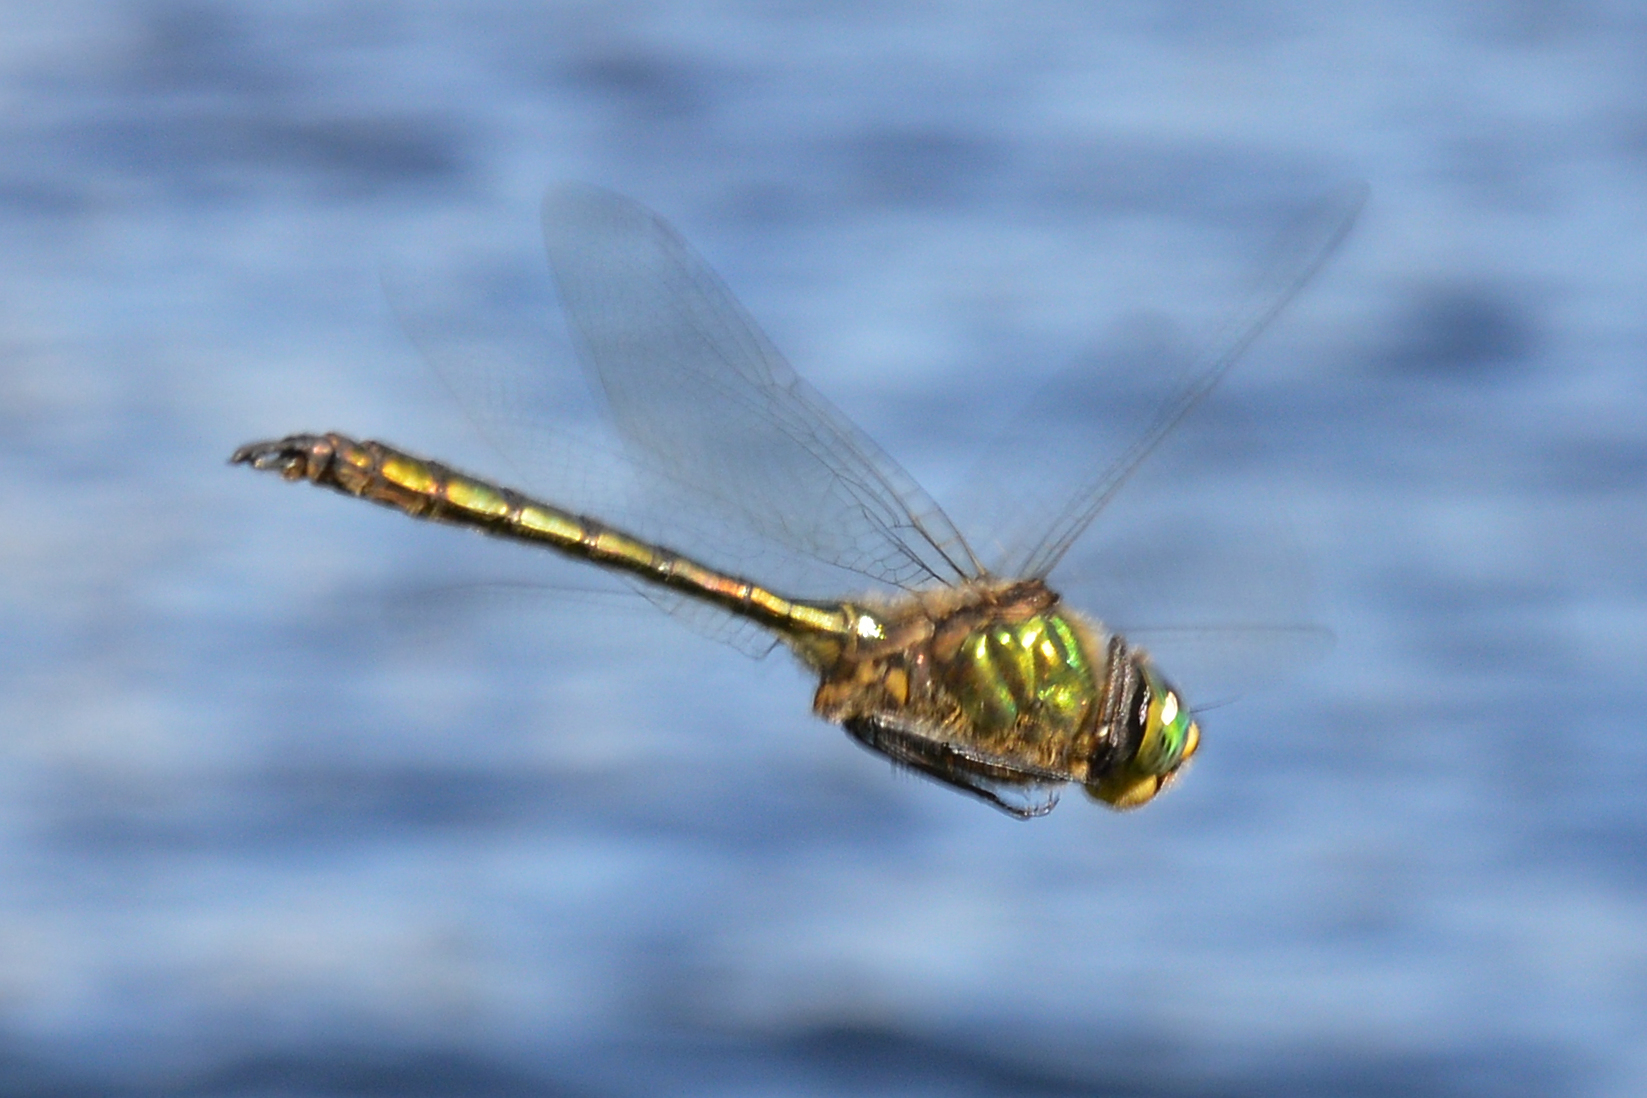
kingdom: Animalia
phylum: Arthropoda
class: Insecta
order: Odonata
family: Corduliidae
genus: Somatochlora
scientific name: Somatochlora metallica
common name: Brilliant emerald
